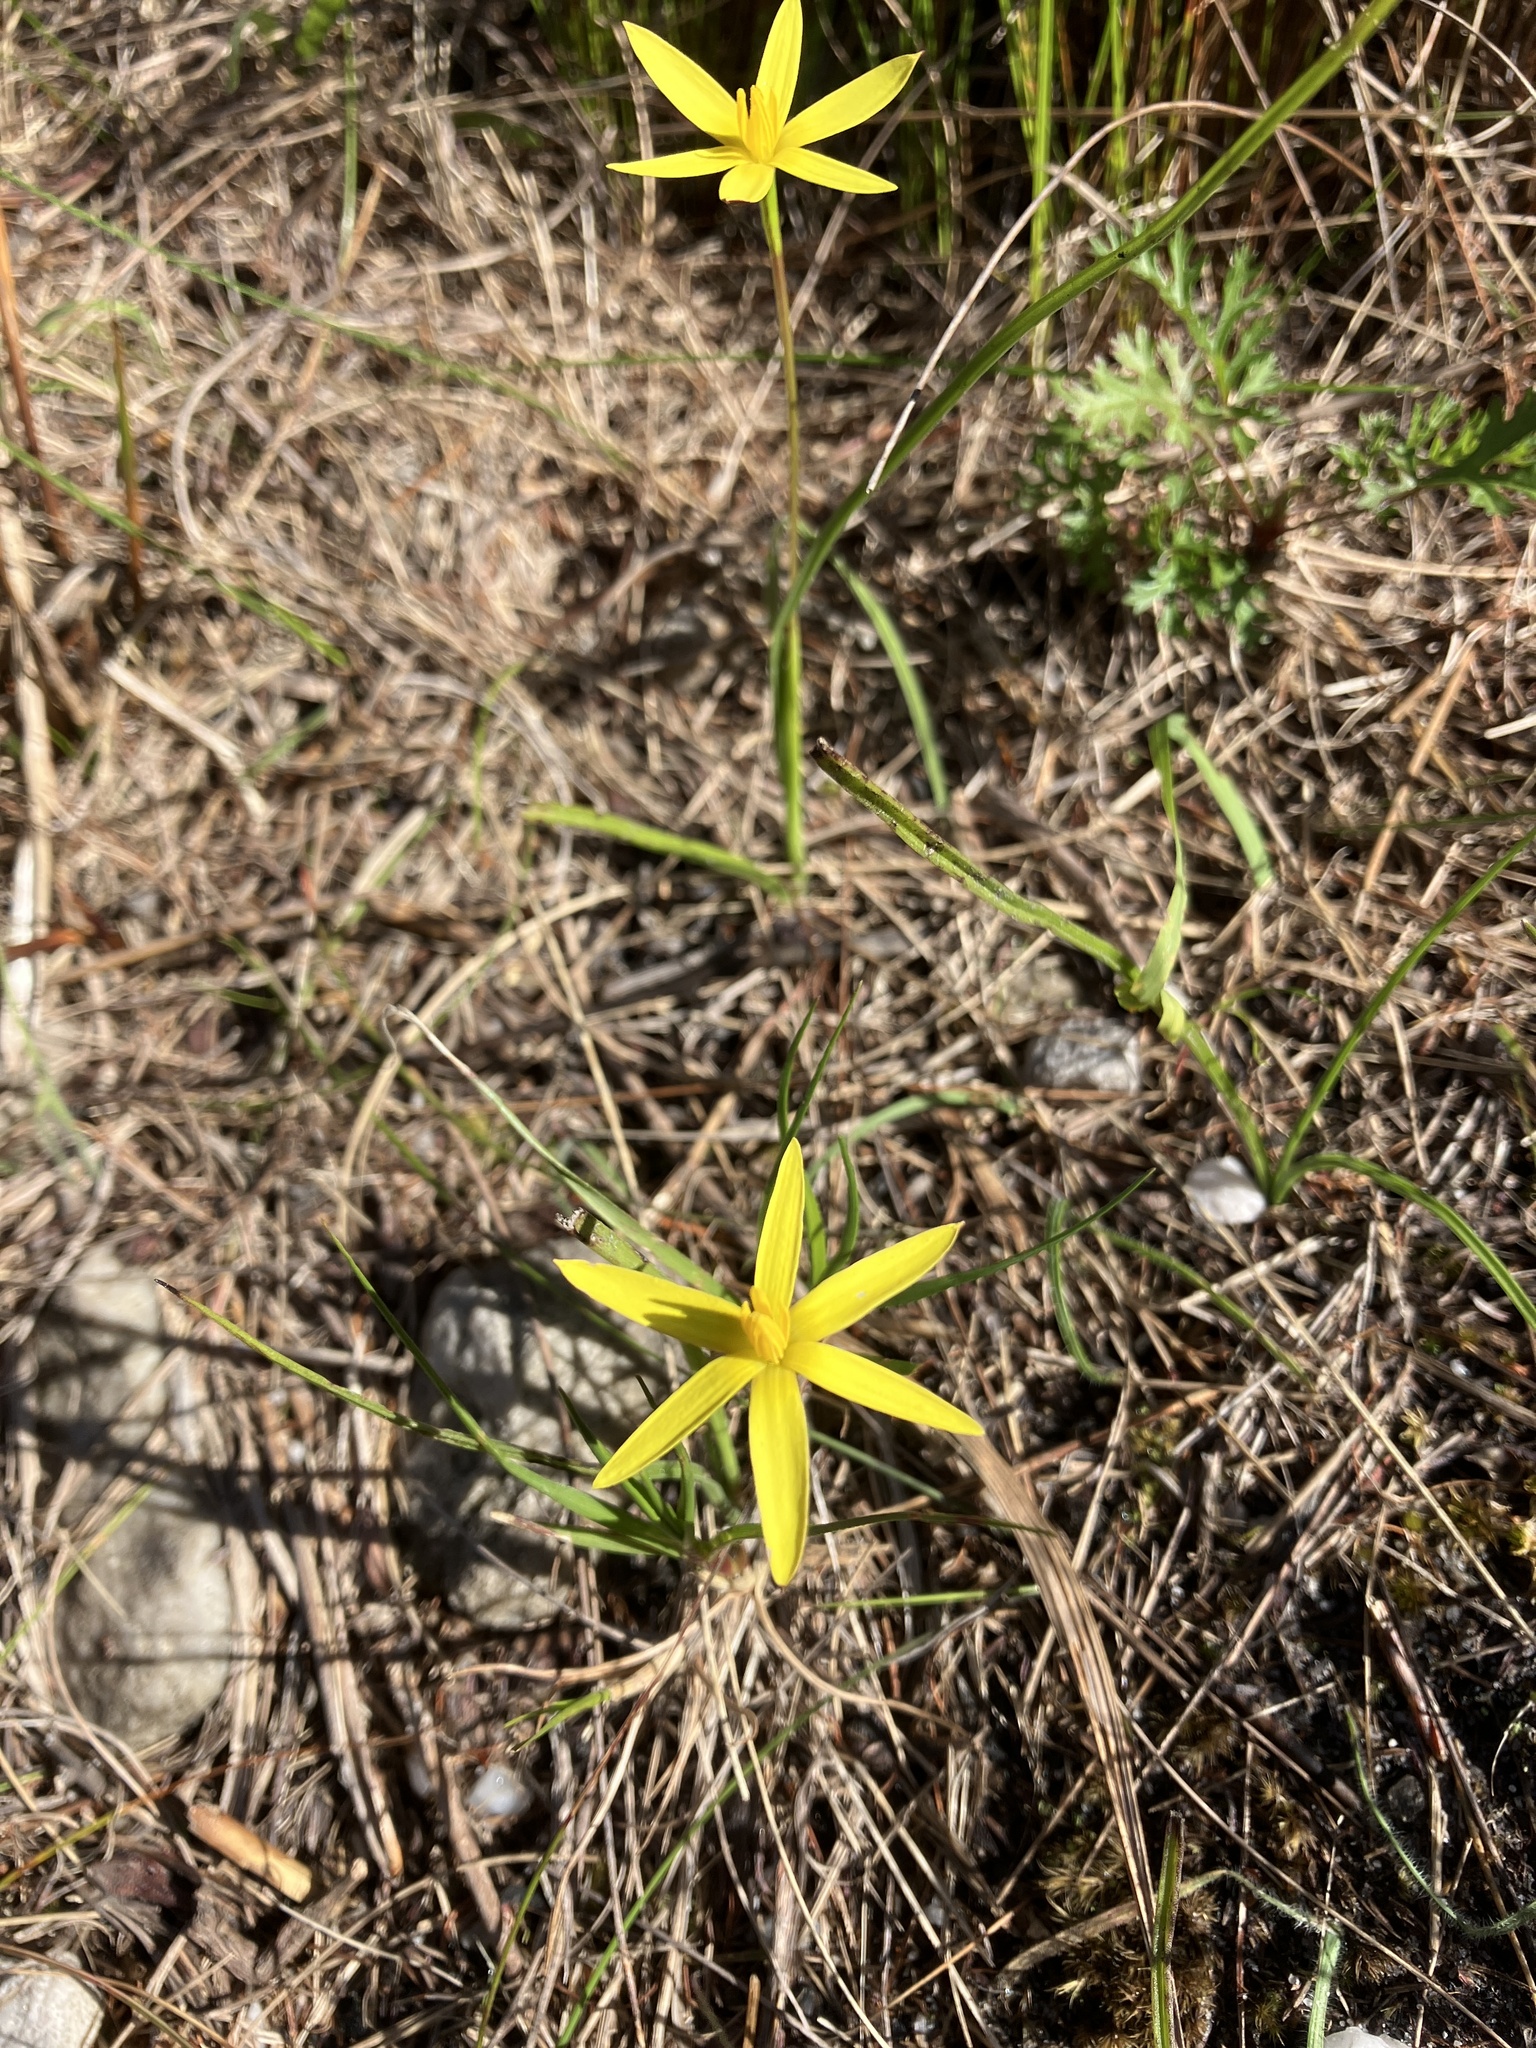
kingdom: Plantae
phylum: Tracheophyta
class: Liliopsida
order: Asparagales
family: Hypoxidaceae
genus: Pauridia
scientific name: Pauridia flaccida
